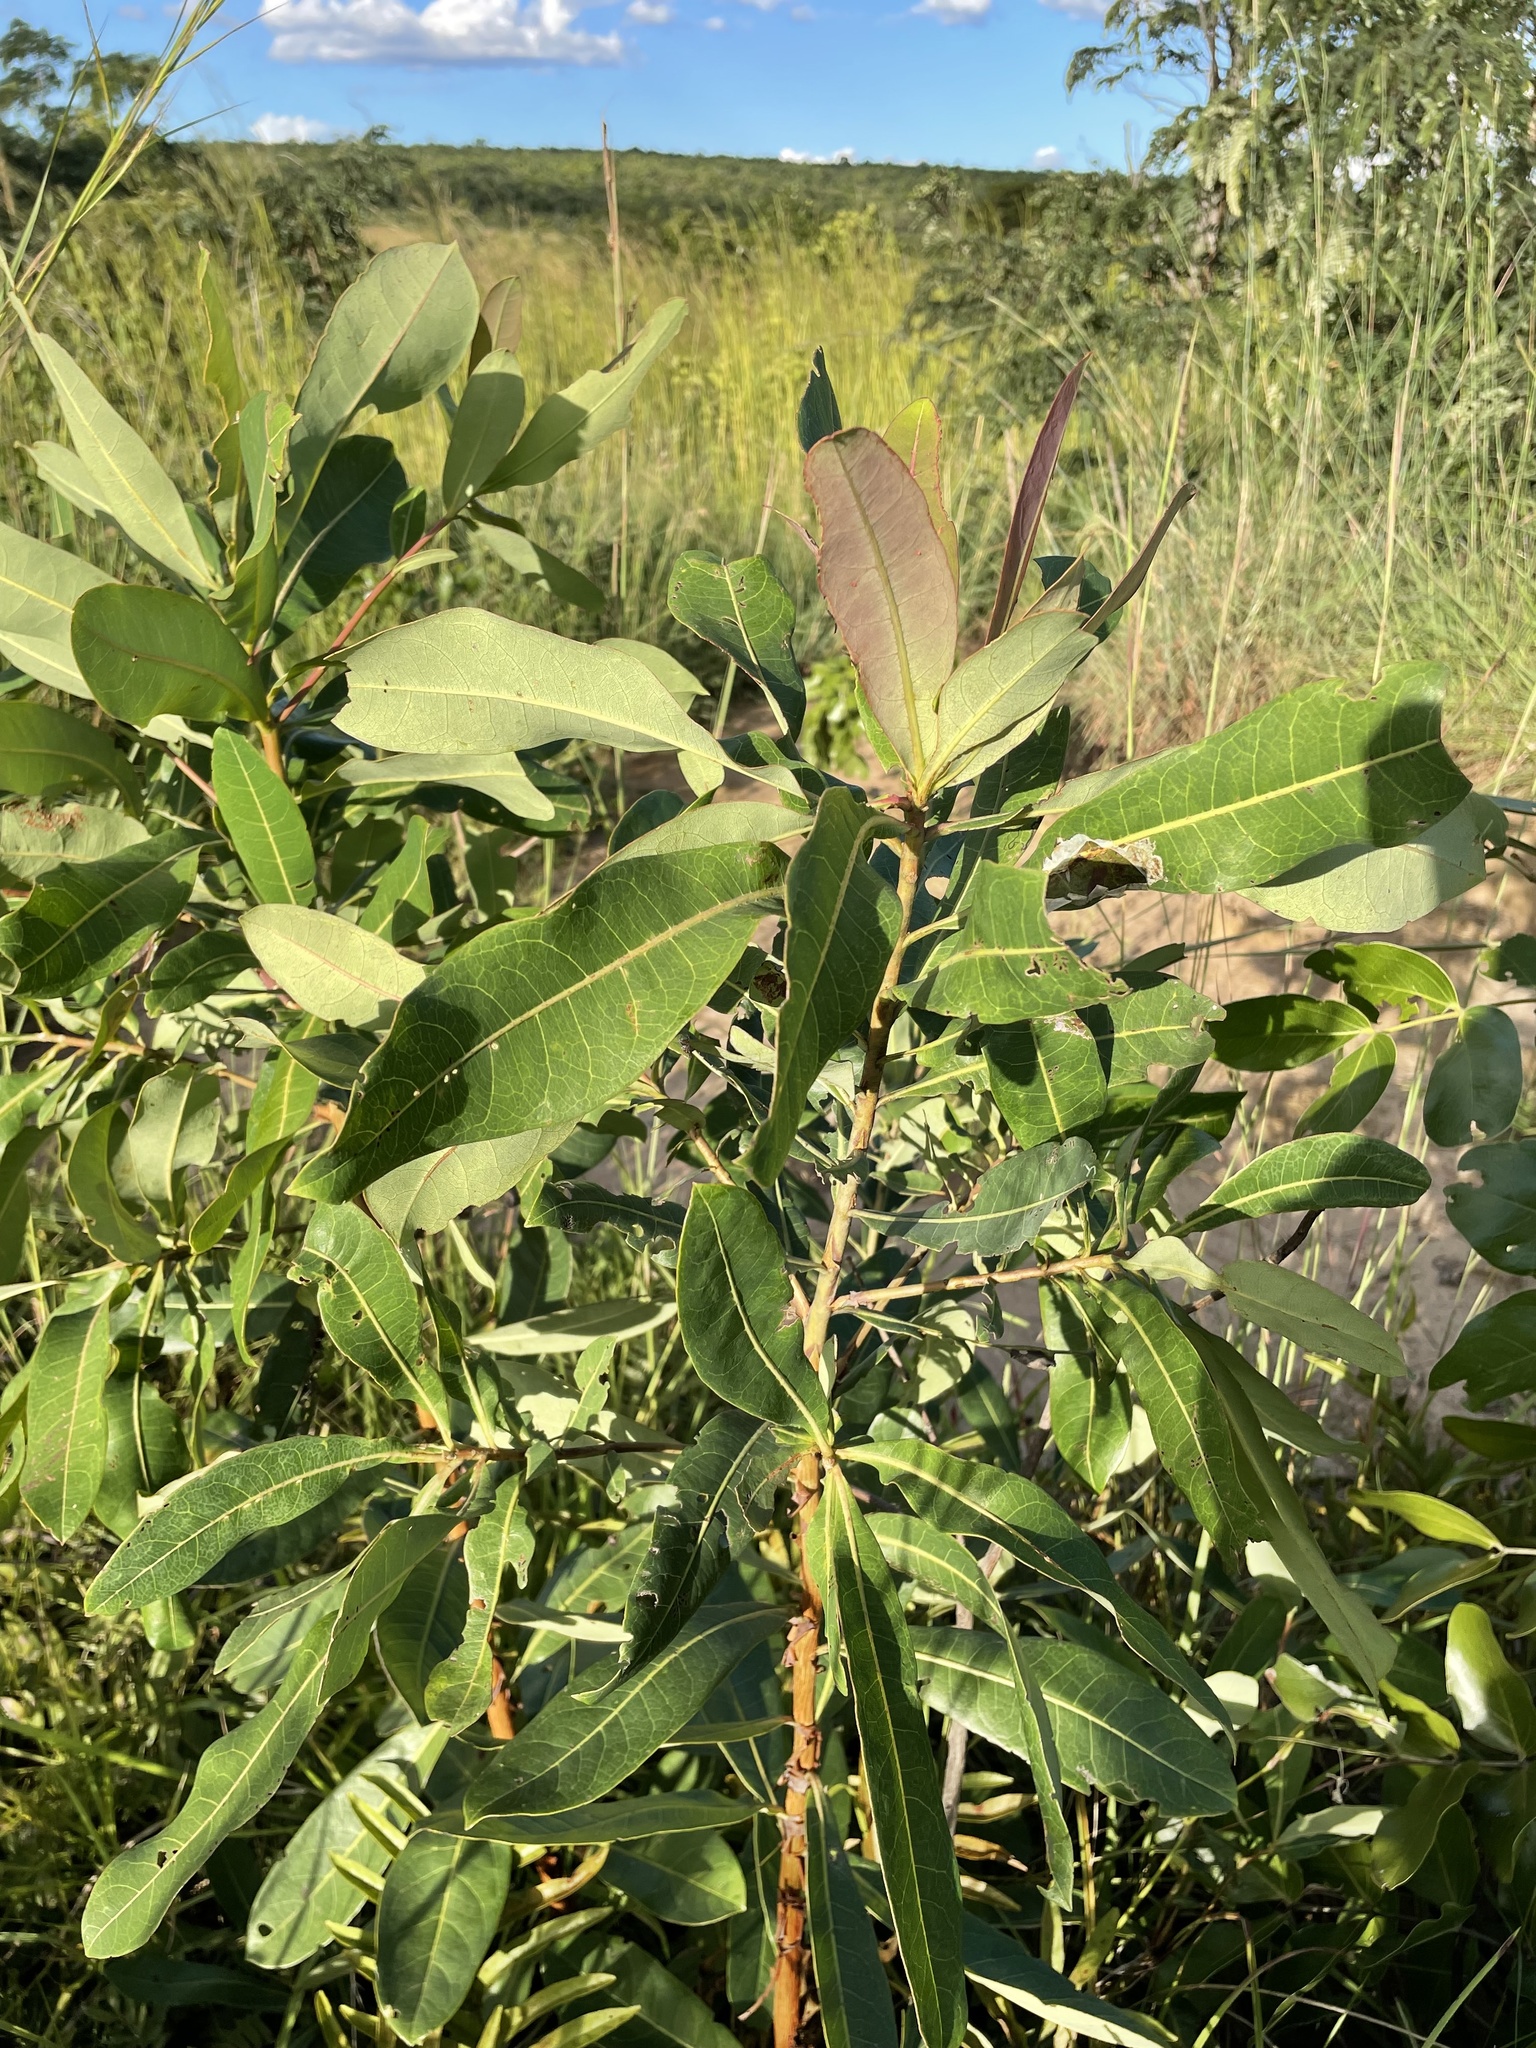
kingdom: Plantae
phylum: Tracheophyta
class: Magnoliopsida
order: Myrtales
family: Combretaceae
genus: Terminalia
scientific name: Terminalia brachystemma
